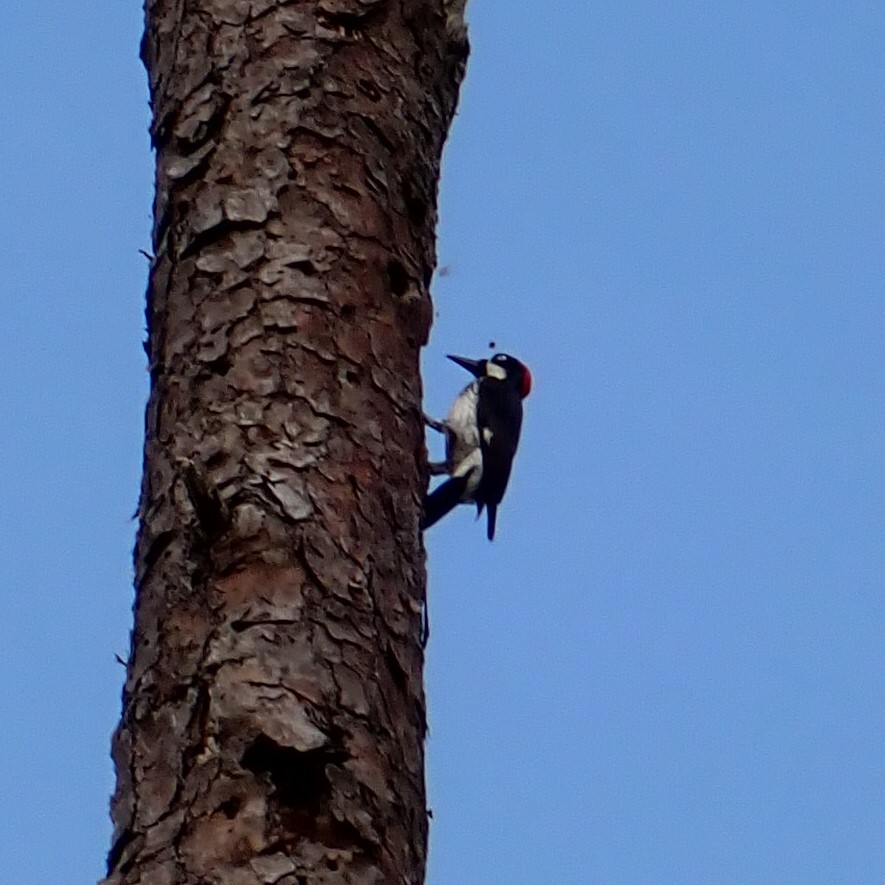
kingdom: Animalia
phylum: Chordata
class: Aves
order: Piciformes
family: Picidae
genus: Melanerpes
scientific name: Melanerpes formicivorus
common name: Acorn woodpecker
